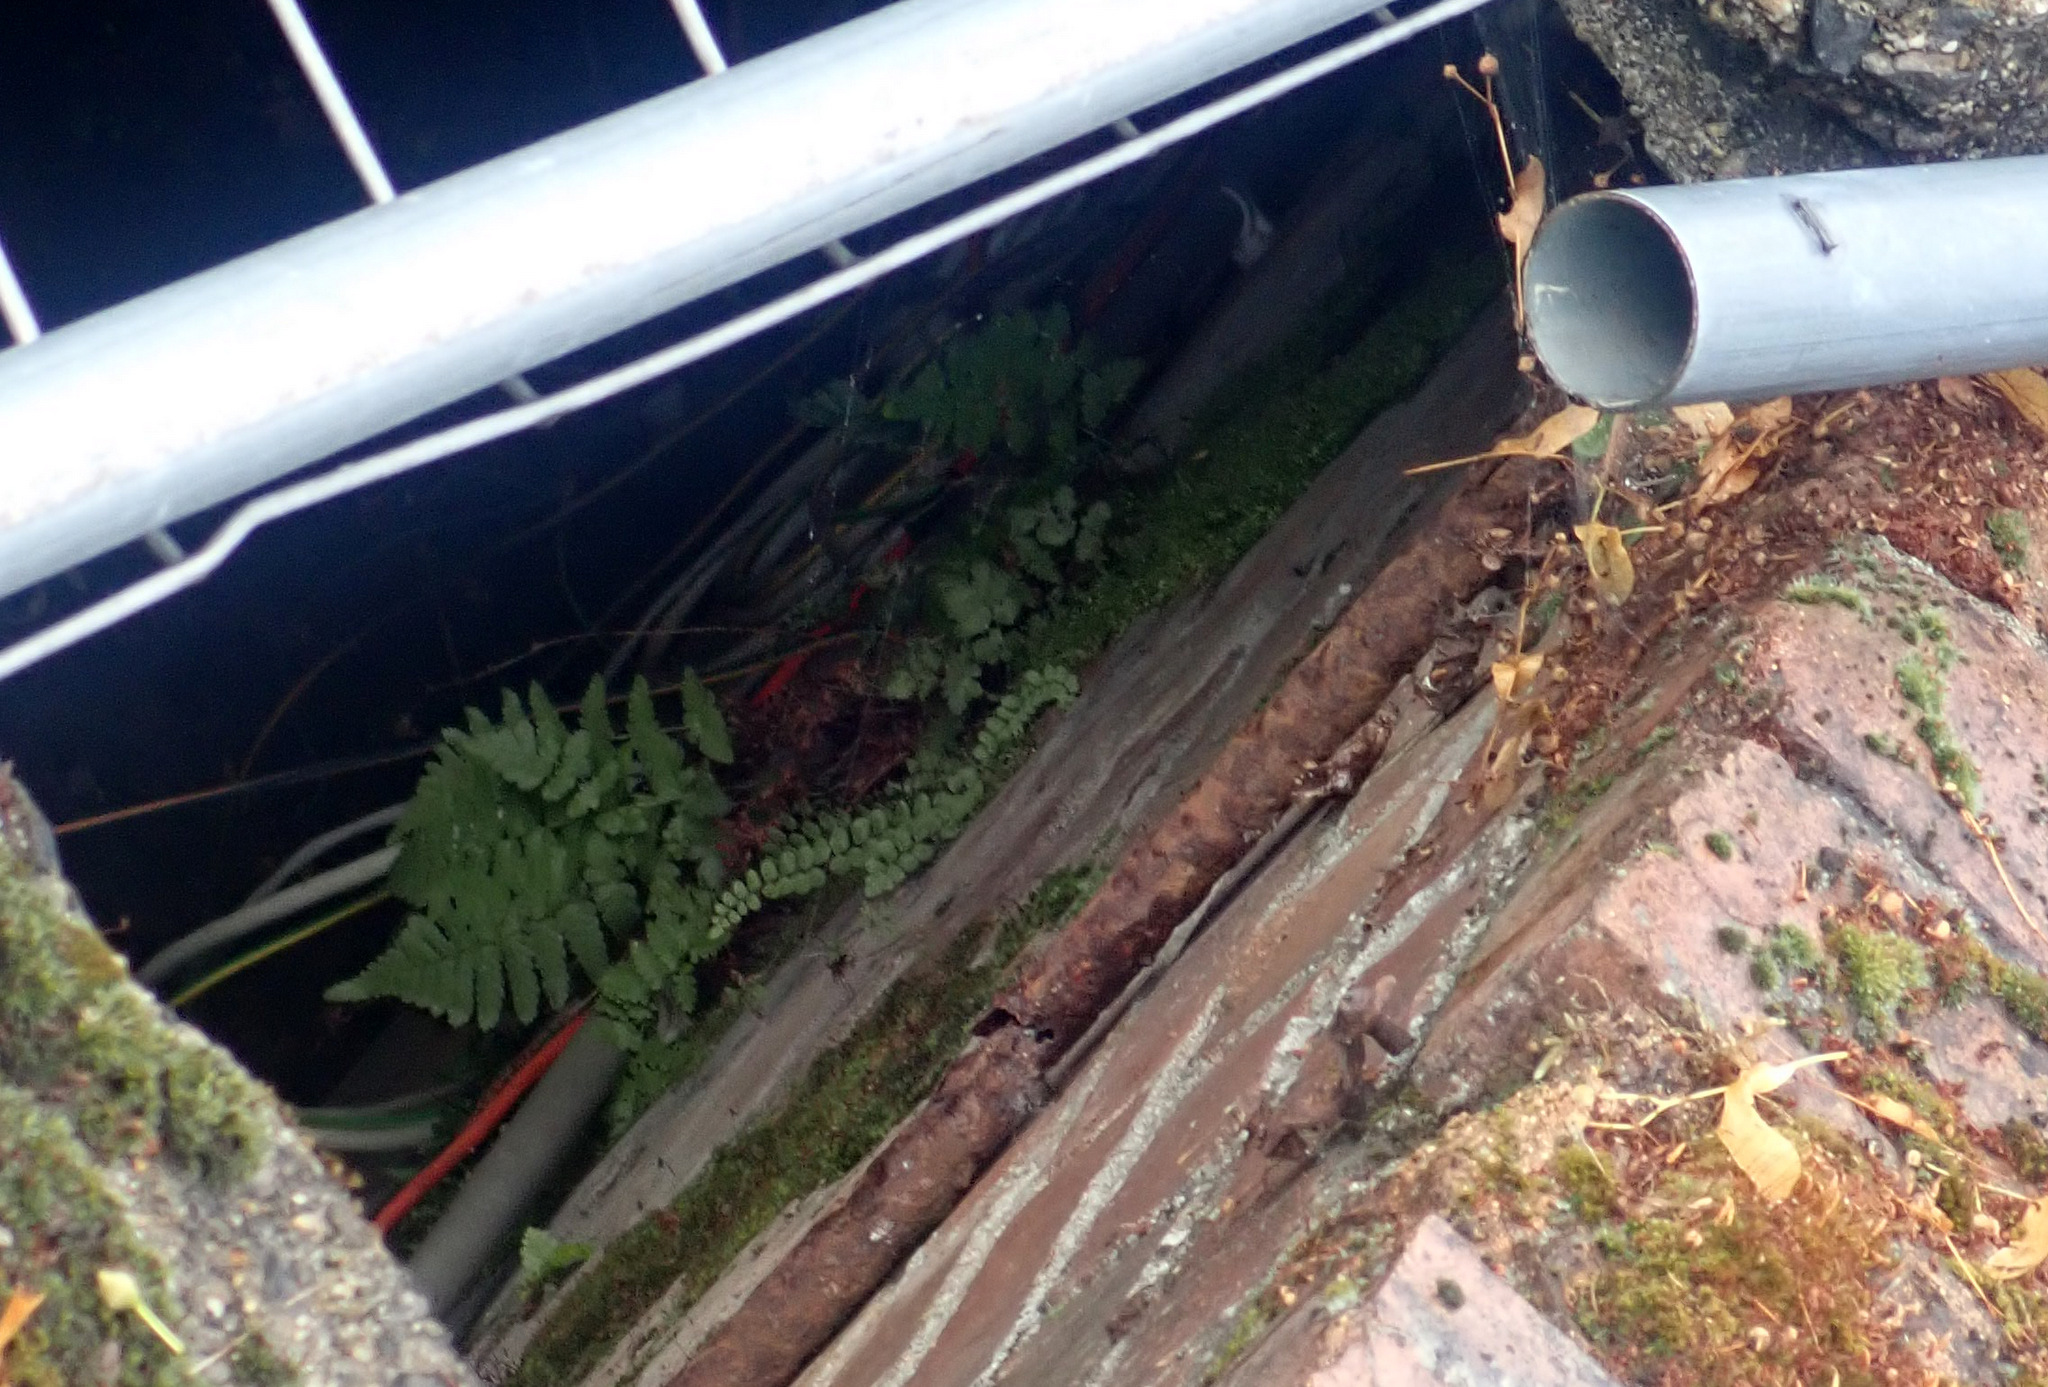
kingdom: Plantae
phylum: Tracheophyta
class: Polypodiopsida
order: Polypodiales
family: Aspleniaceae
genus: Asplenium
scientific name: Asplenium trichomanes
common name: Maidenhair spleenwort
